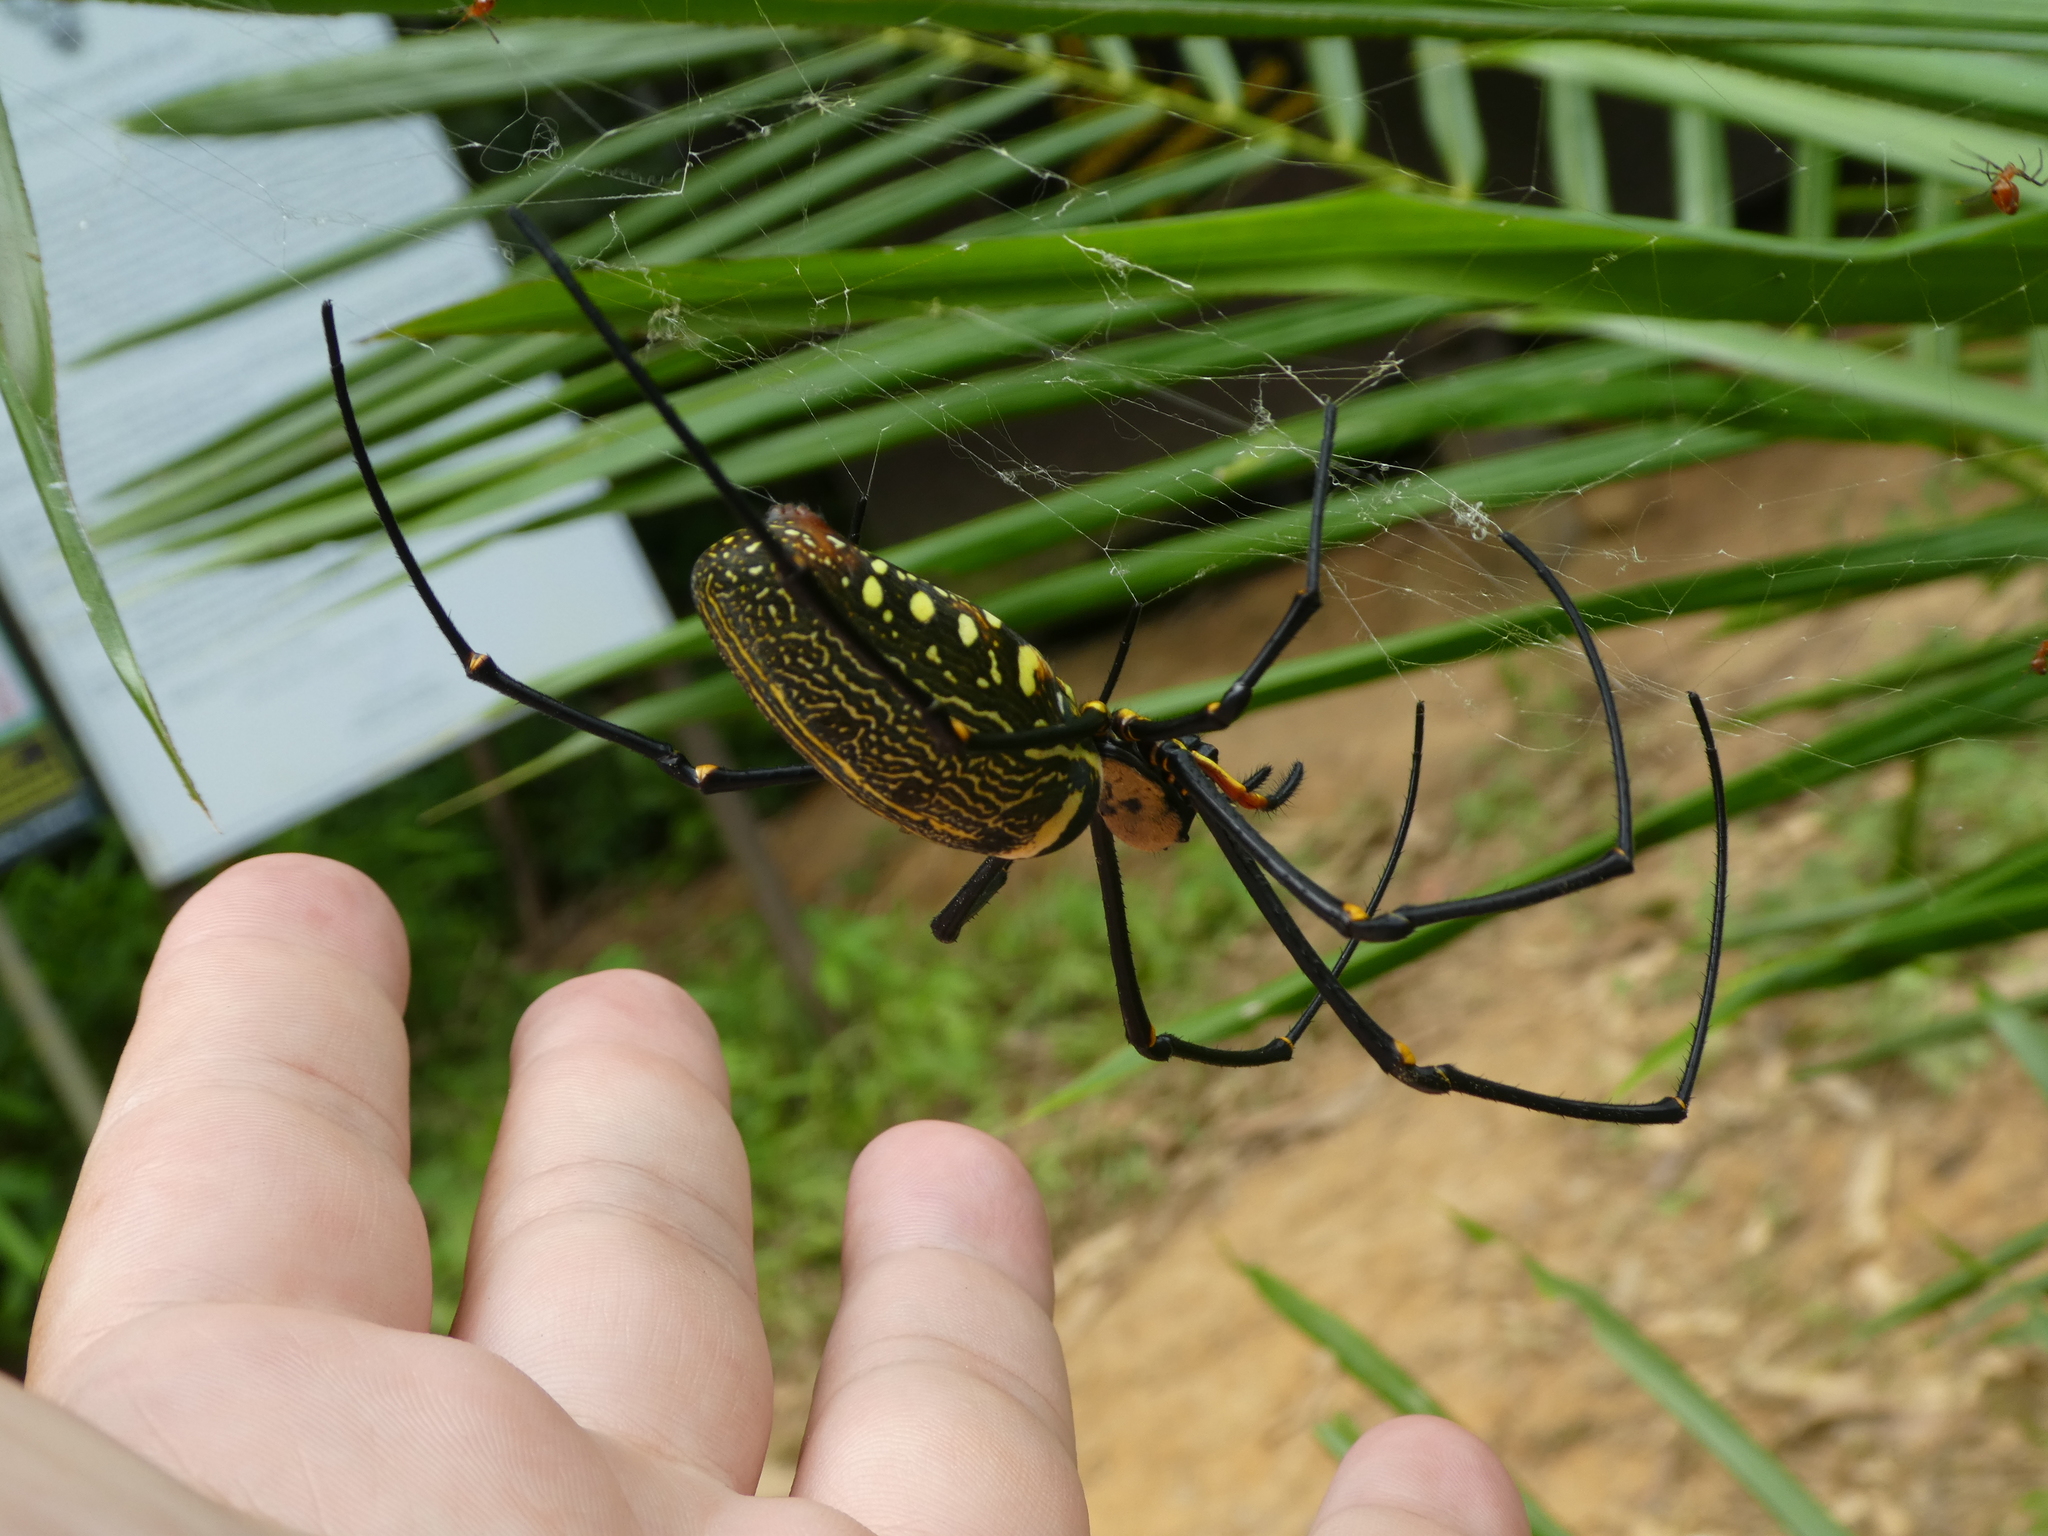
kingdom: Animalia
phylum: Arthropoda
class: Arachnida
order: Araneae
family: Araneidae
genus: Nephila
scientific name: Nephila pilipes
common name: Giant golden orb weaver
